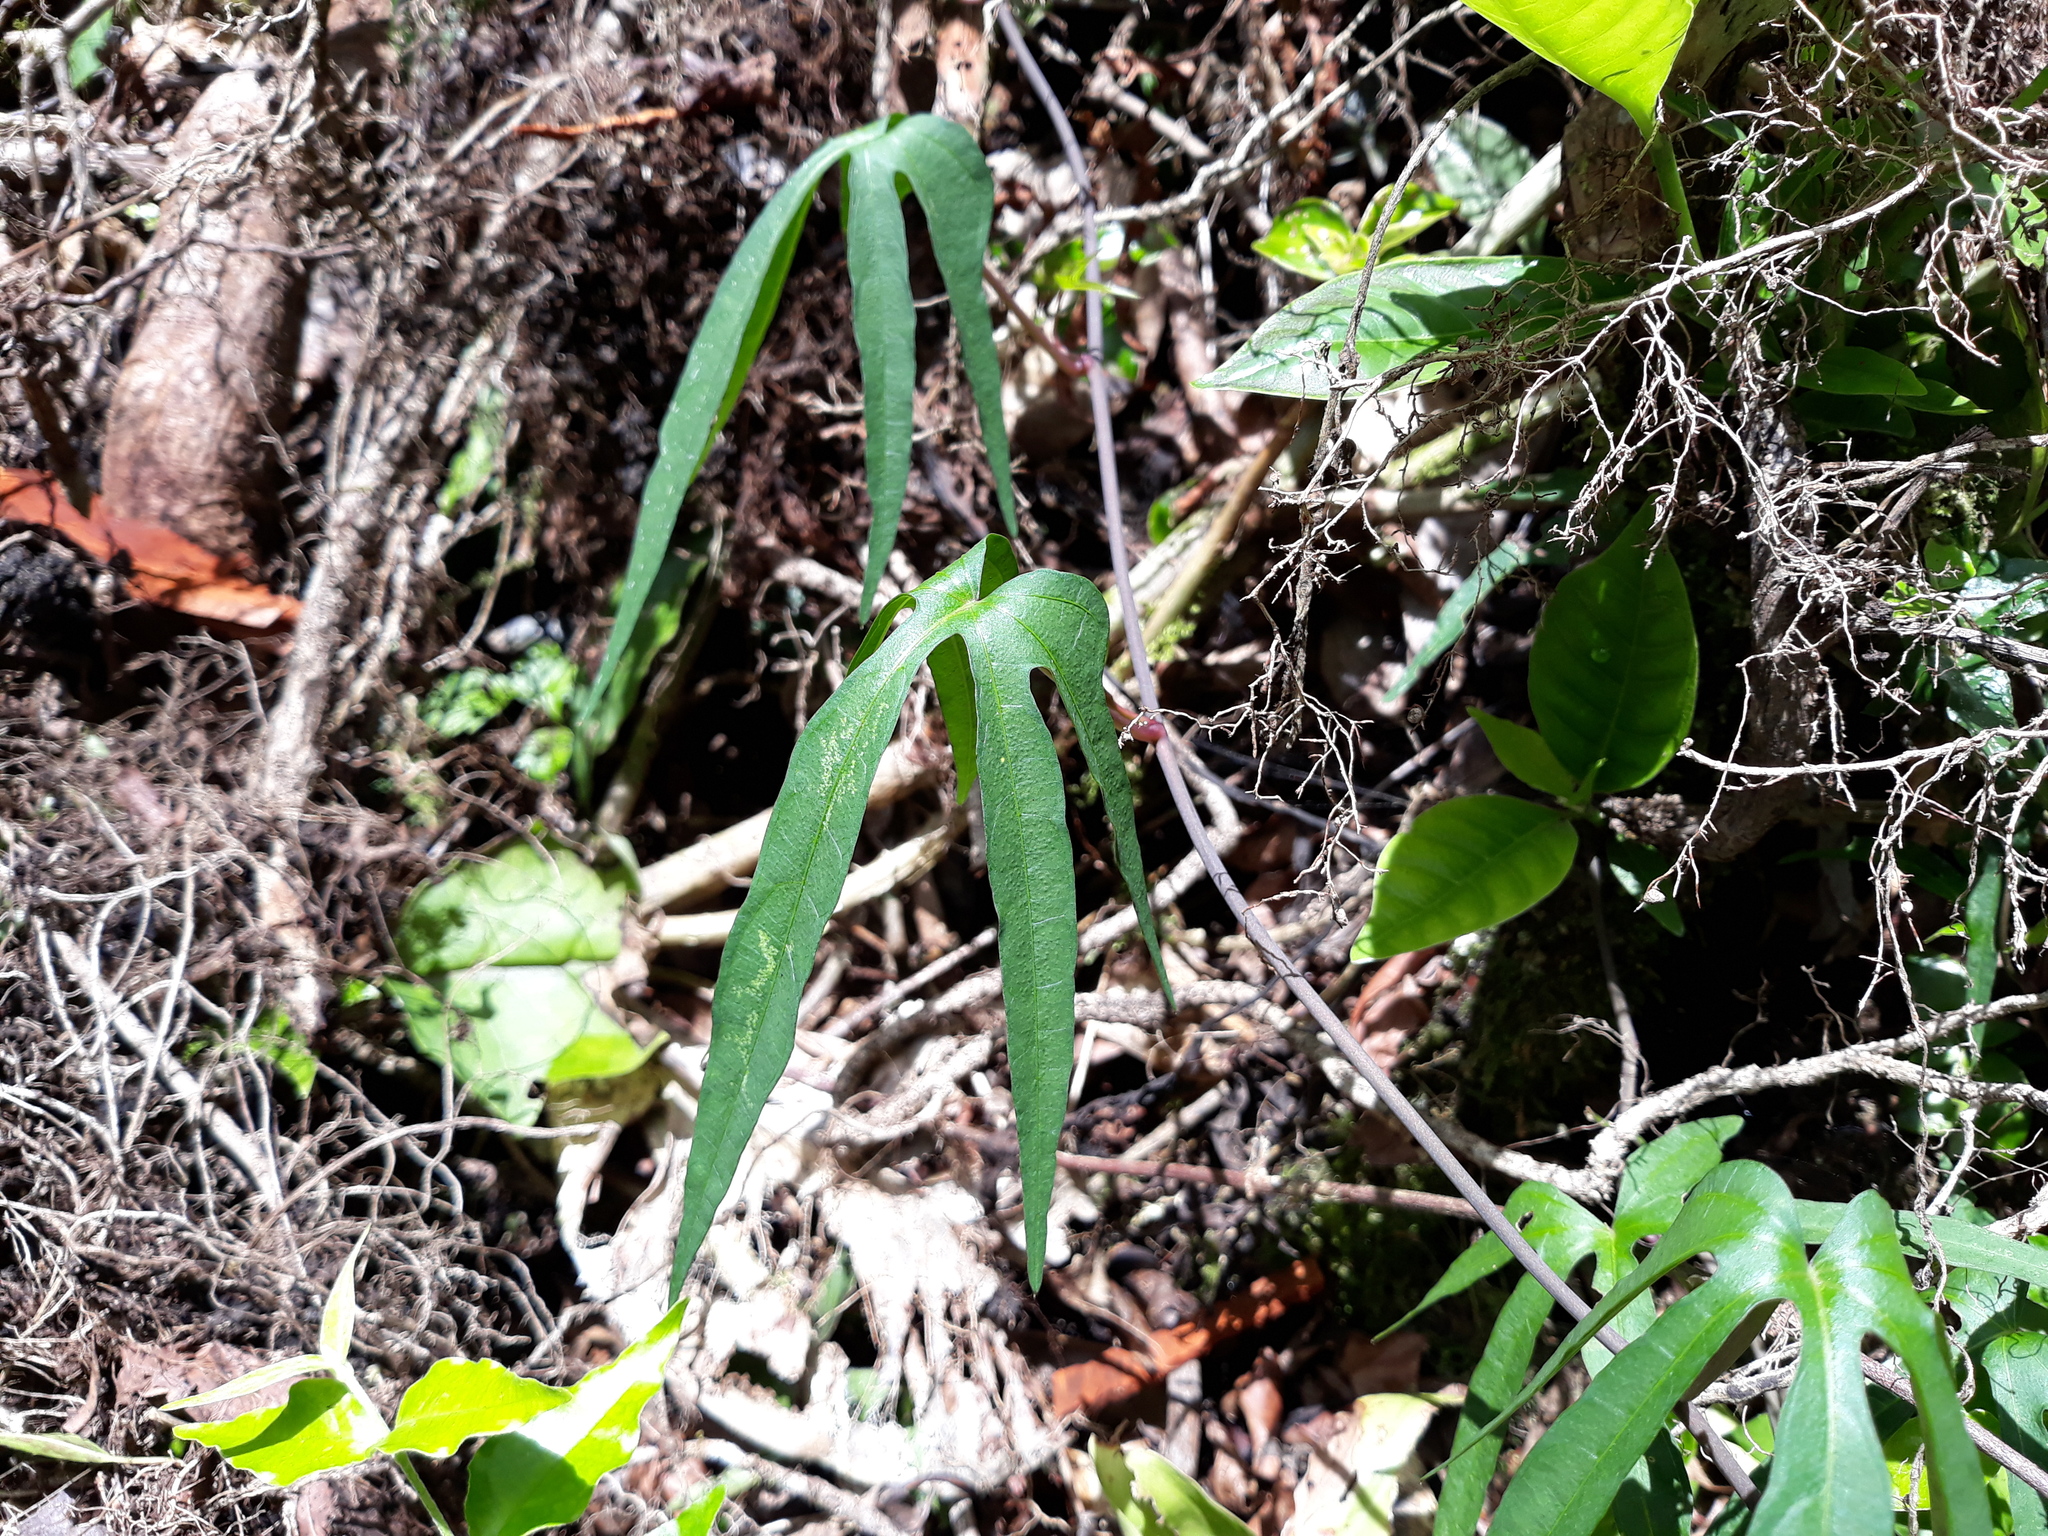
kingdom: Plantae
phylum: Tracheophyta
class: Magnoliopsida
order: Solanales
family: Convolvulaceae
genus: Ipomoea
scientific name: Ipomoea neei
